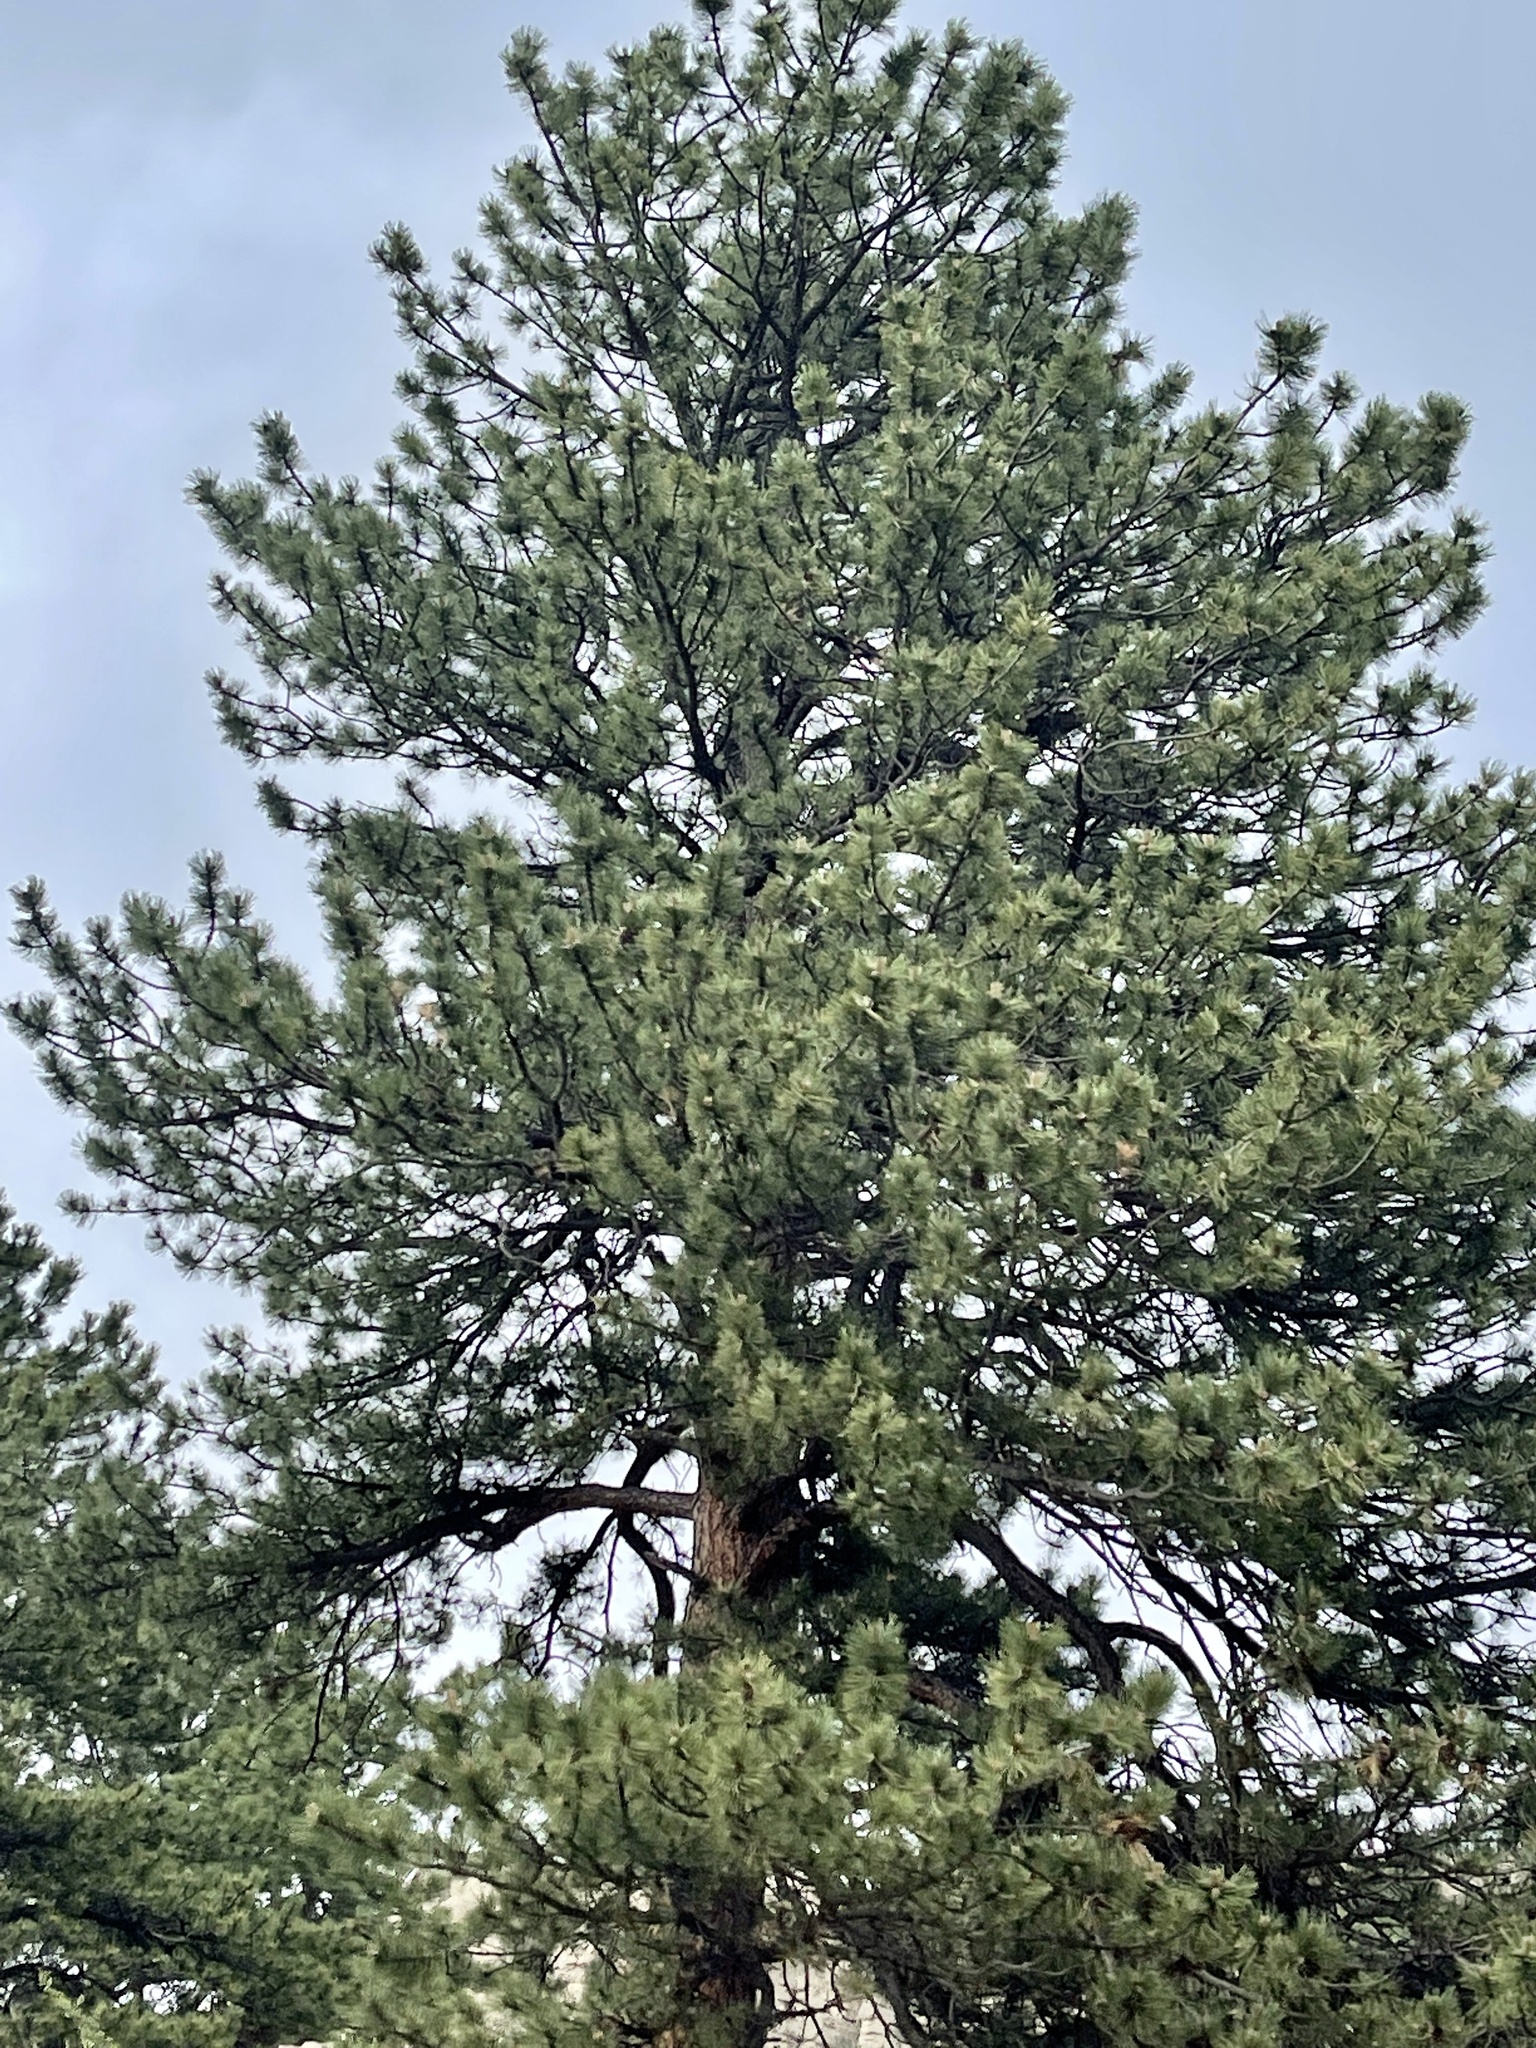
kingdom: Plantae
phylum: Tracheophyta
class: Pinopsida
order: Pinales
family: Pinaceae
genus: Pinus
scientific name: Pinus ponderosa
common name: Western yellow-pine
